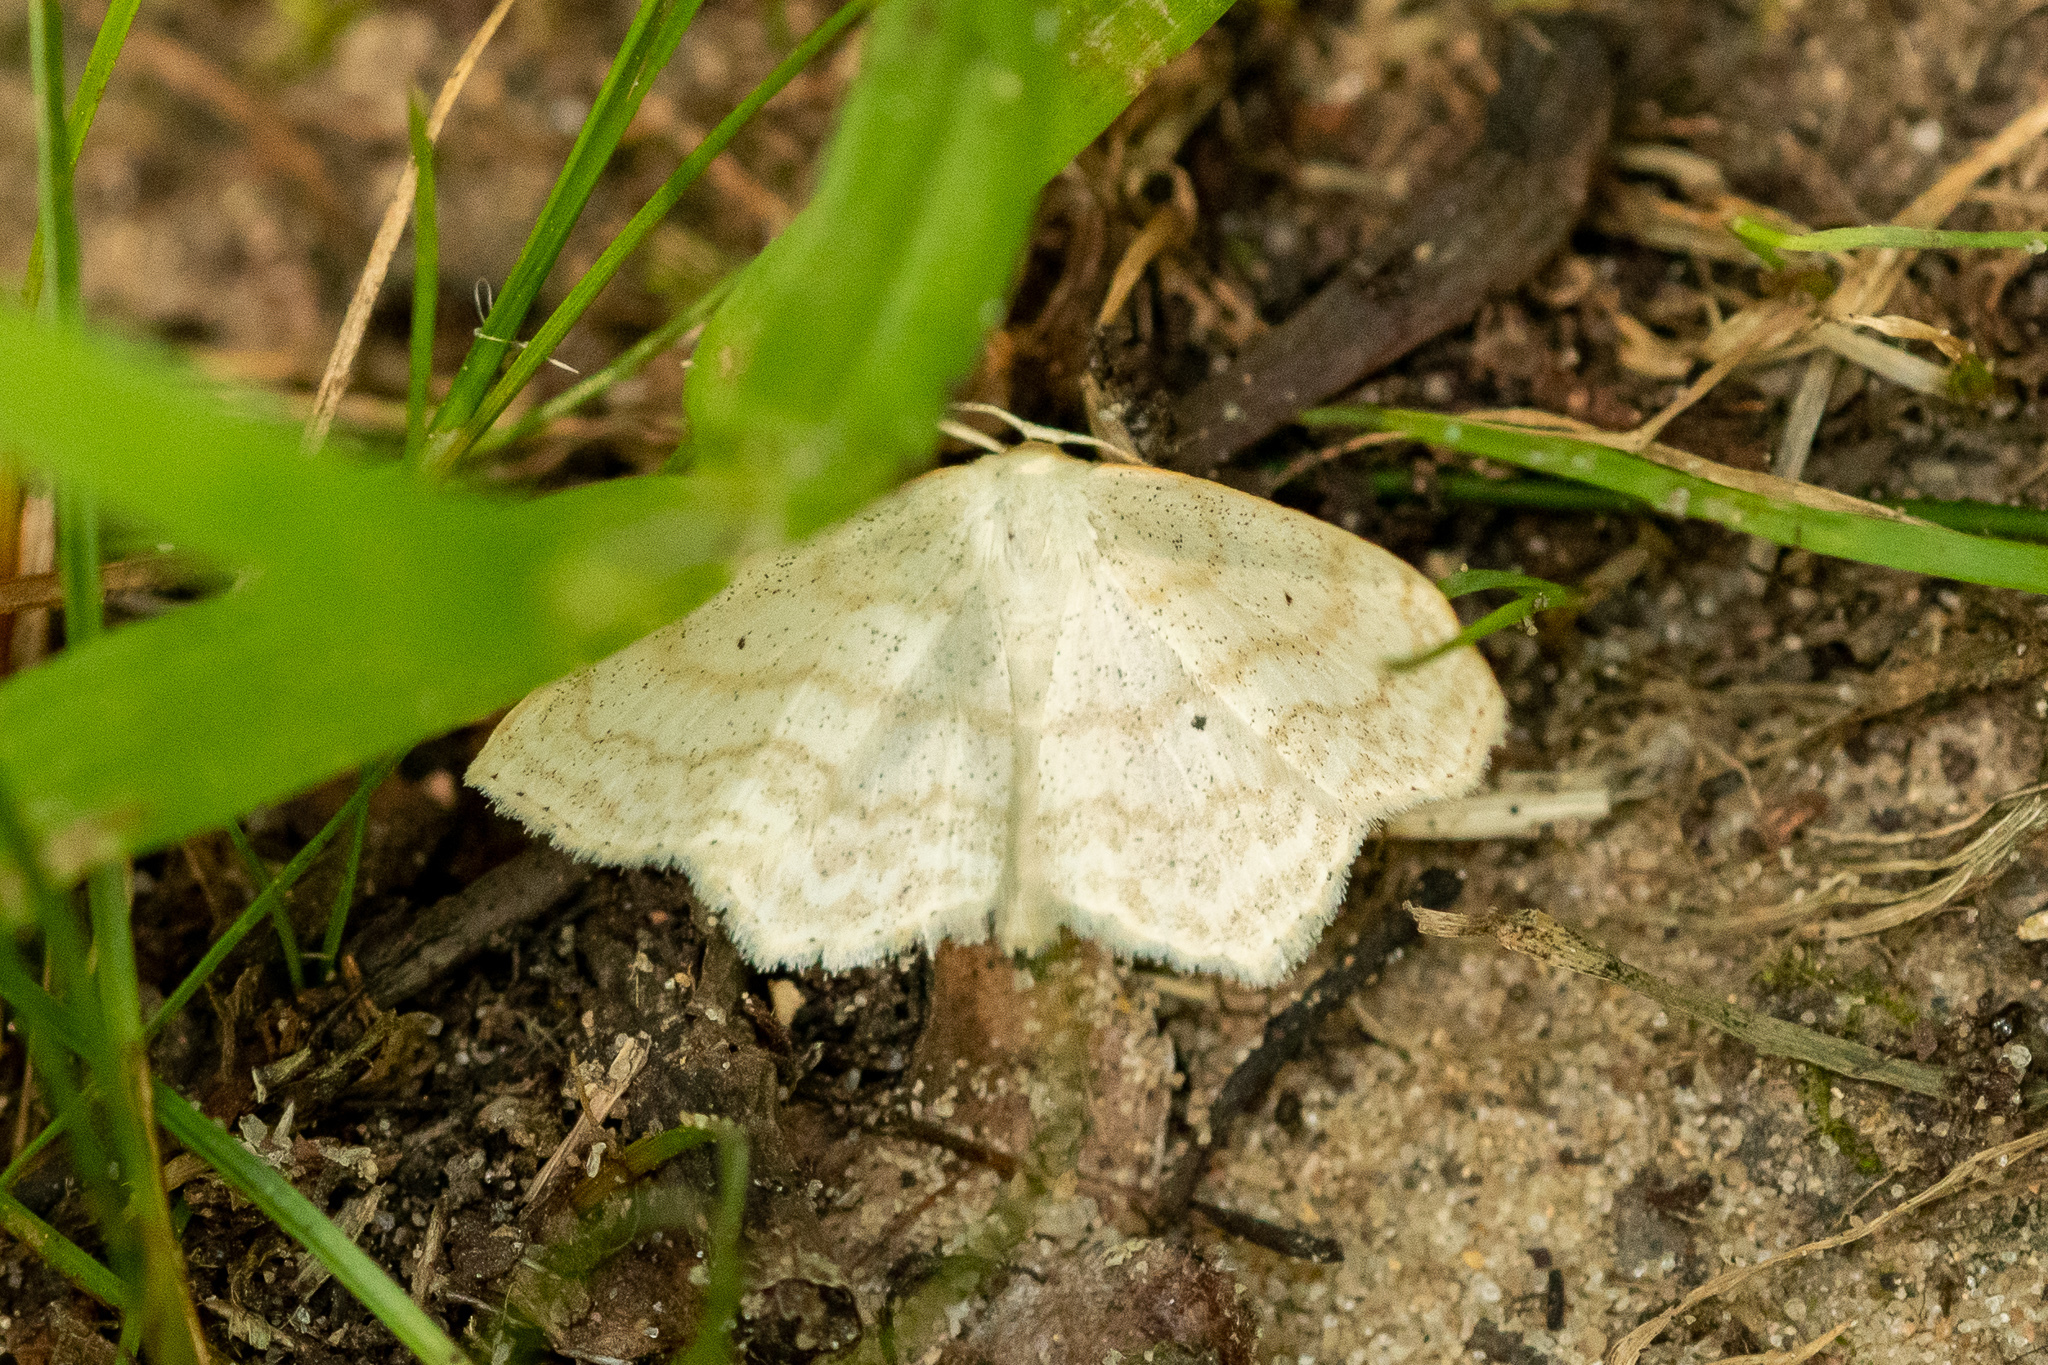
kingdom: Animalia
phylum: Arthropoda
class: Insecta
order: Lepidoptera
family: Geometridae
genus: Scopula
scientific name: Scopula limboundata
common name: Large lace border
